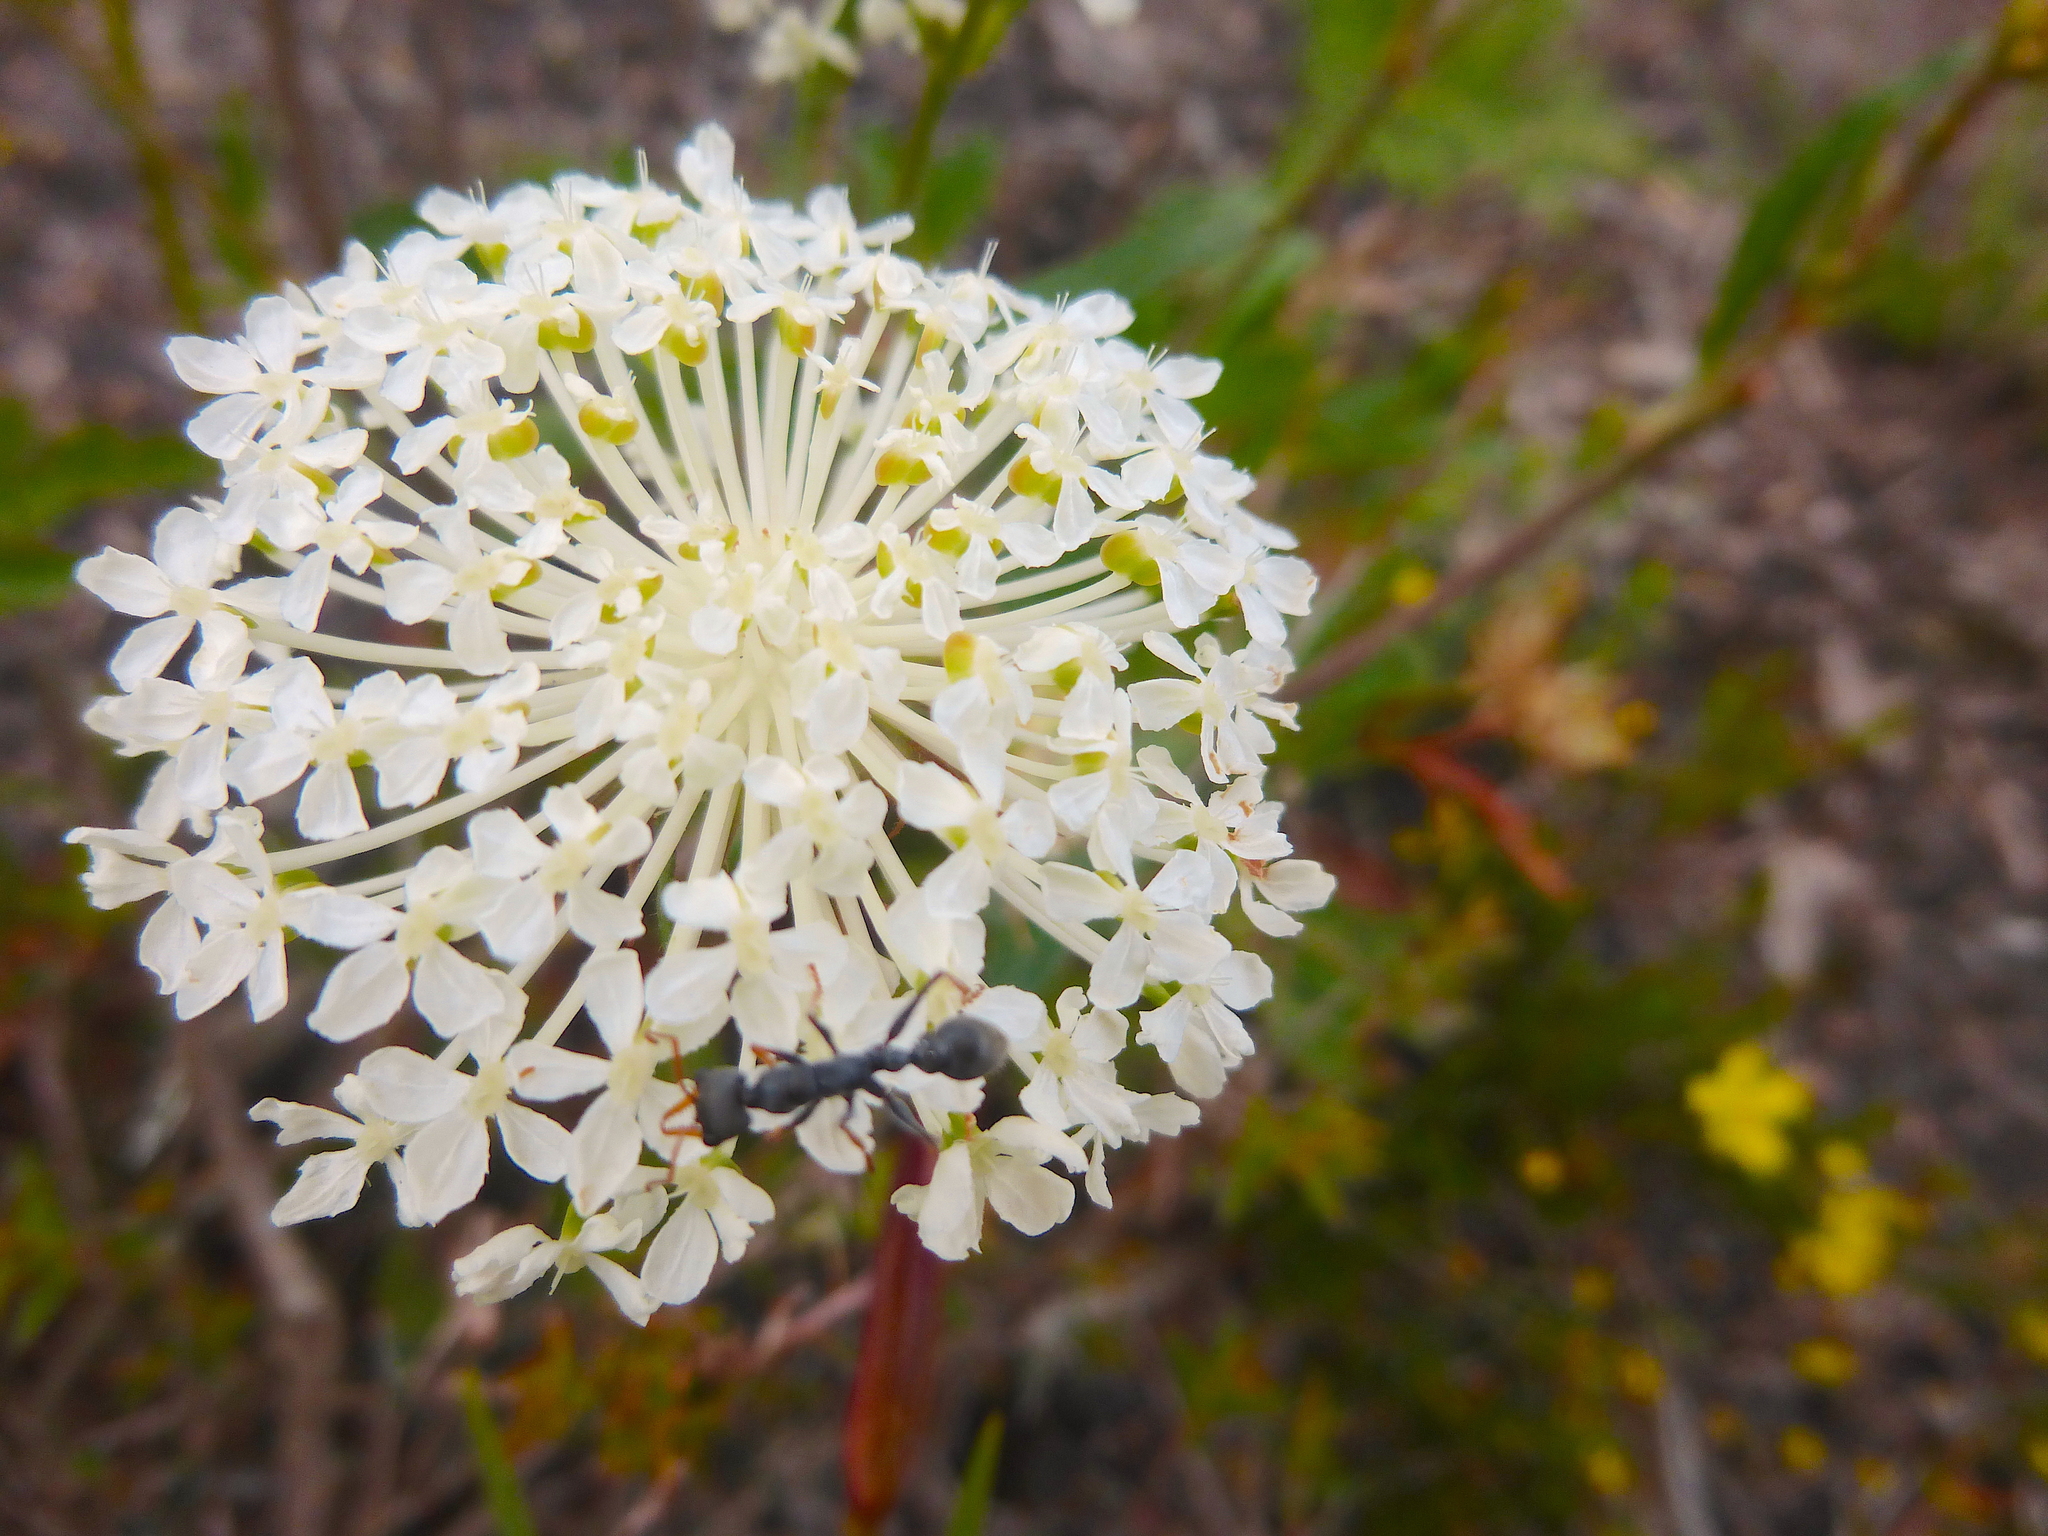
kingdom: Plantae
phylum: Tracheophyta
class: Magnoliopsida
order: Apiales
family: Araliaceae
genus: Trachymene
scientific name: Trachymene composita
